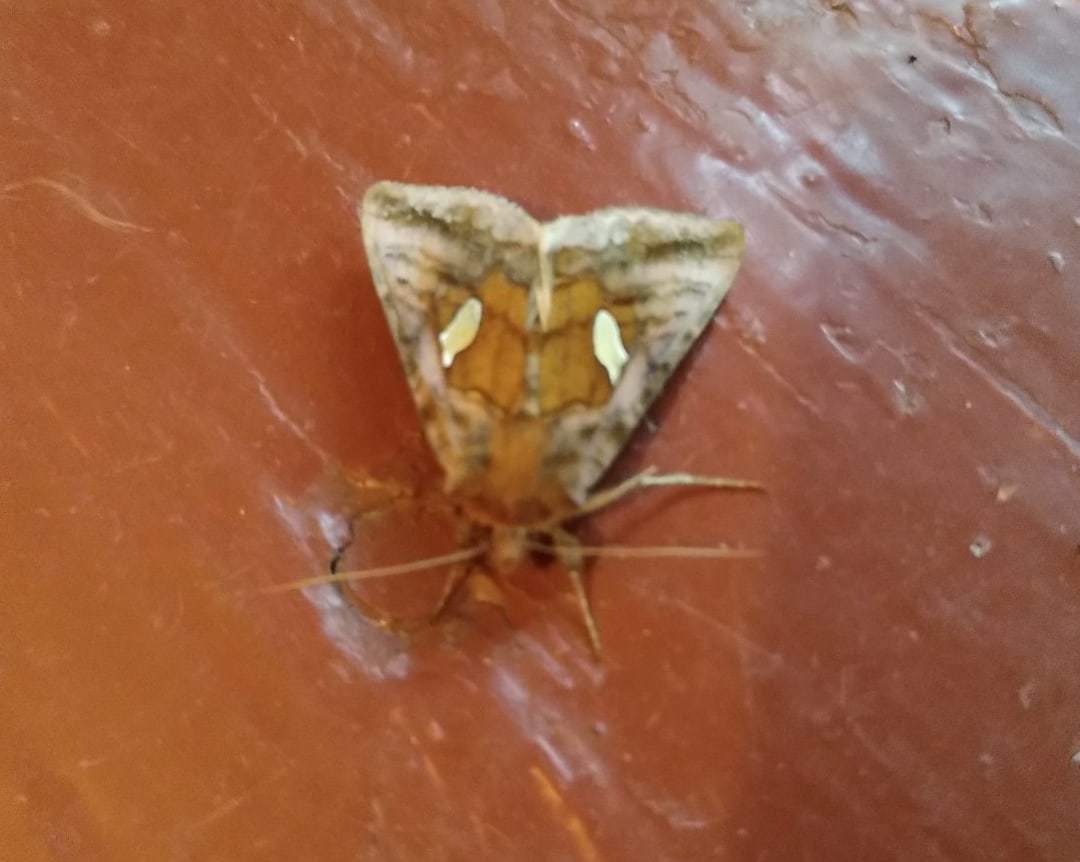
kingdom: Animalia
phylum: Arthropoda
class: Insecta
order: Lepidoptera
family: Noctuidae
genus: Autographa
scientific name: Autographa excelsa
